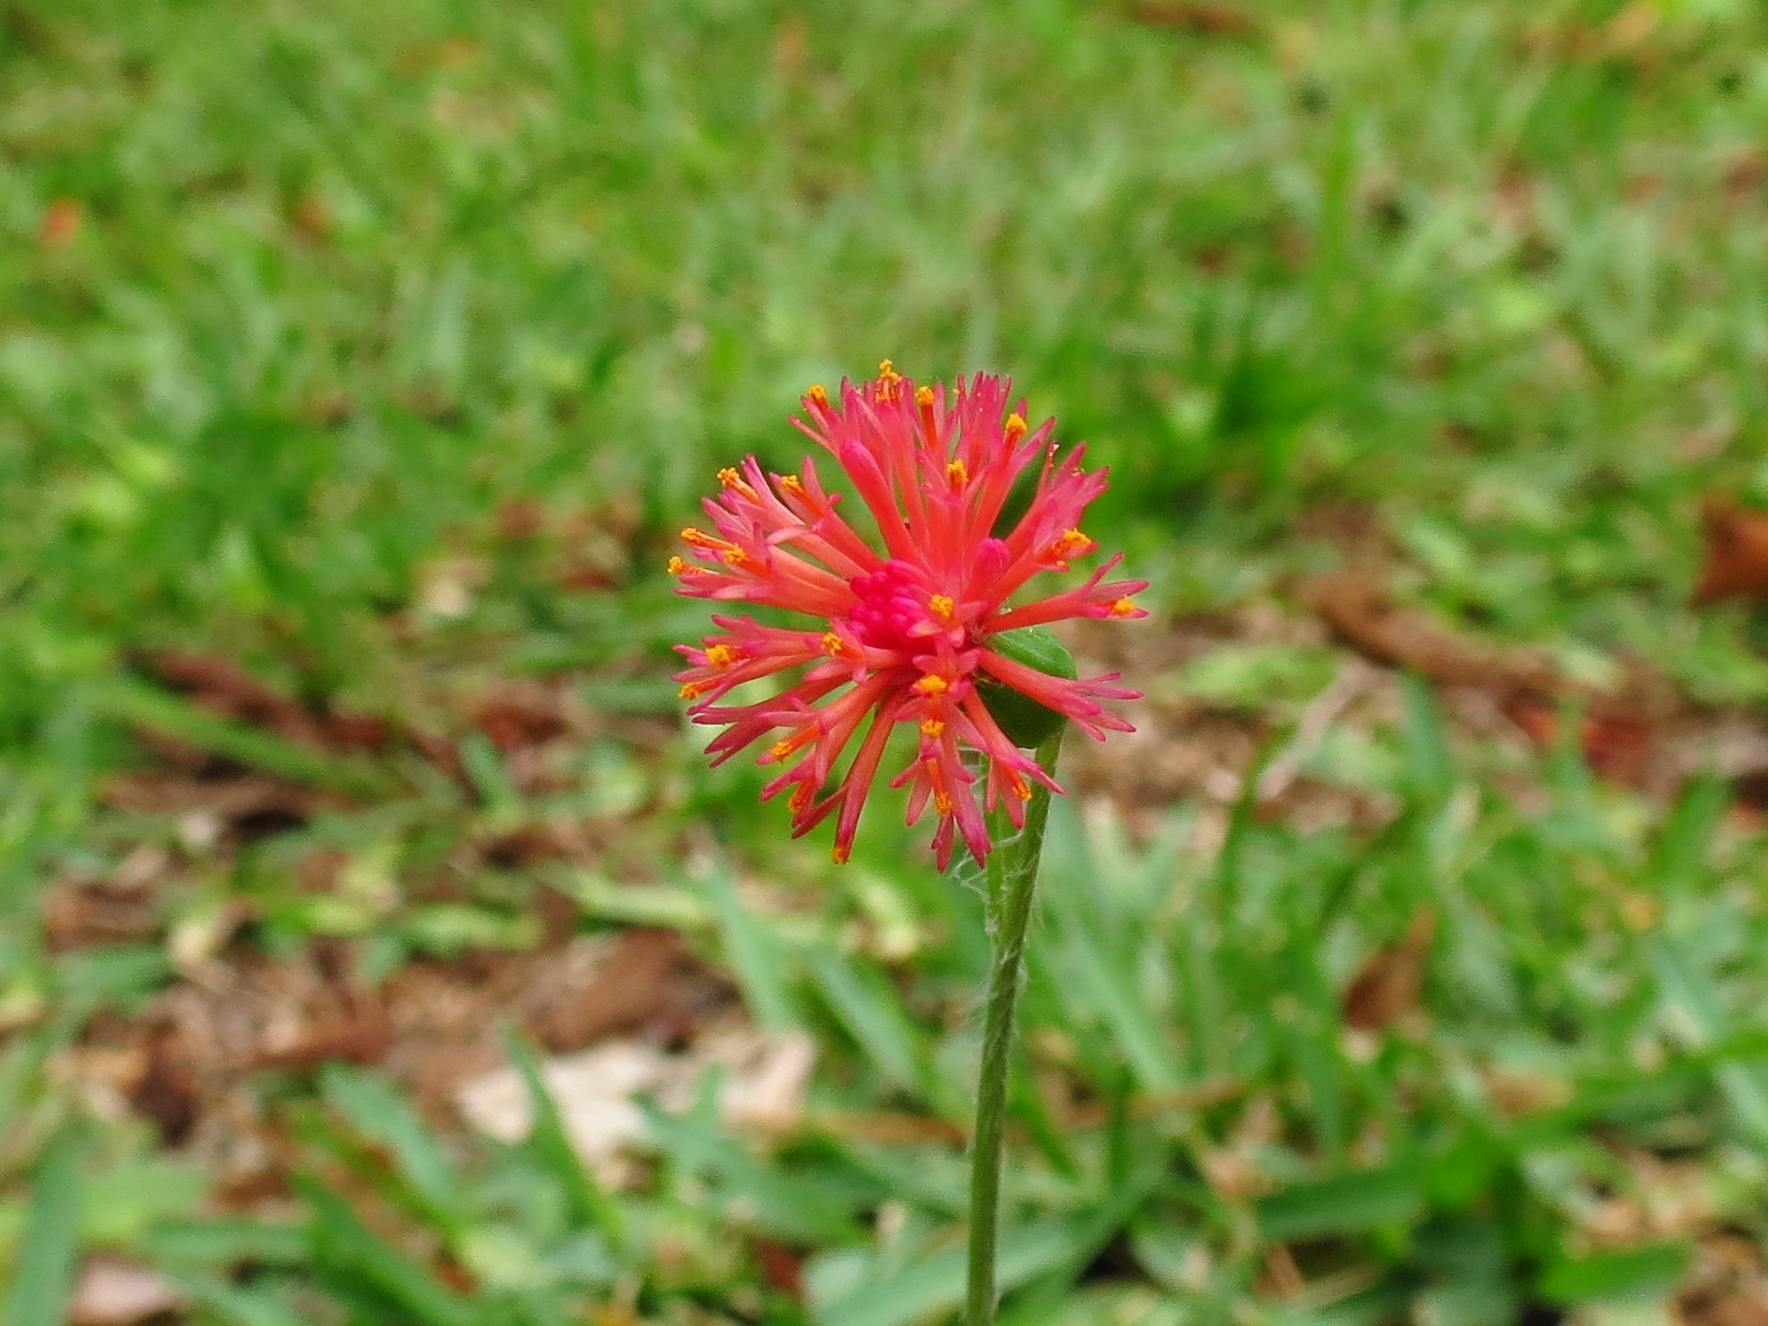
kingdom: Plantae
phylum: Tracheophyta
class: Magnoliopsida
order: Asterales
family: Asteraceae
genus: Emilia
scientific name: Emilia fosbergii
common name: Florida tasselflower
